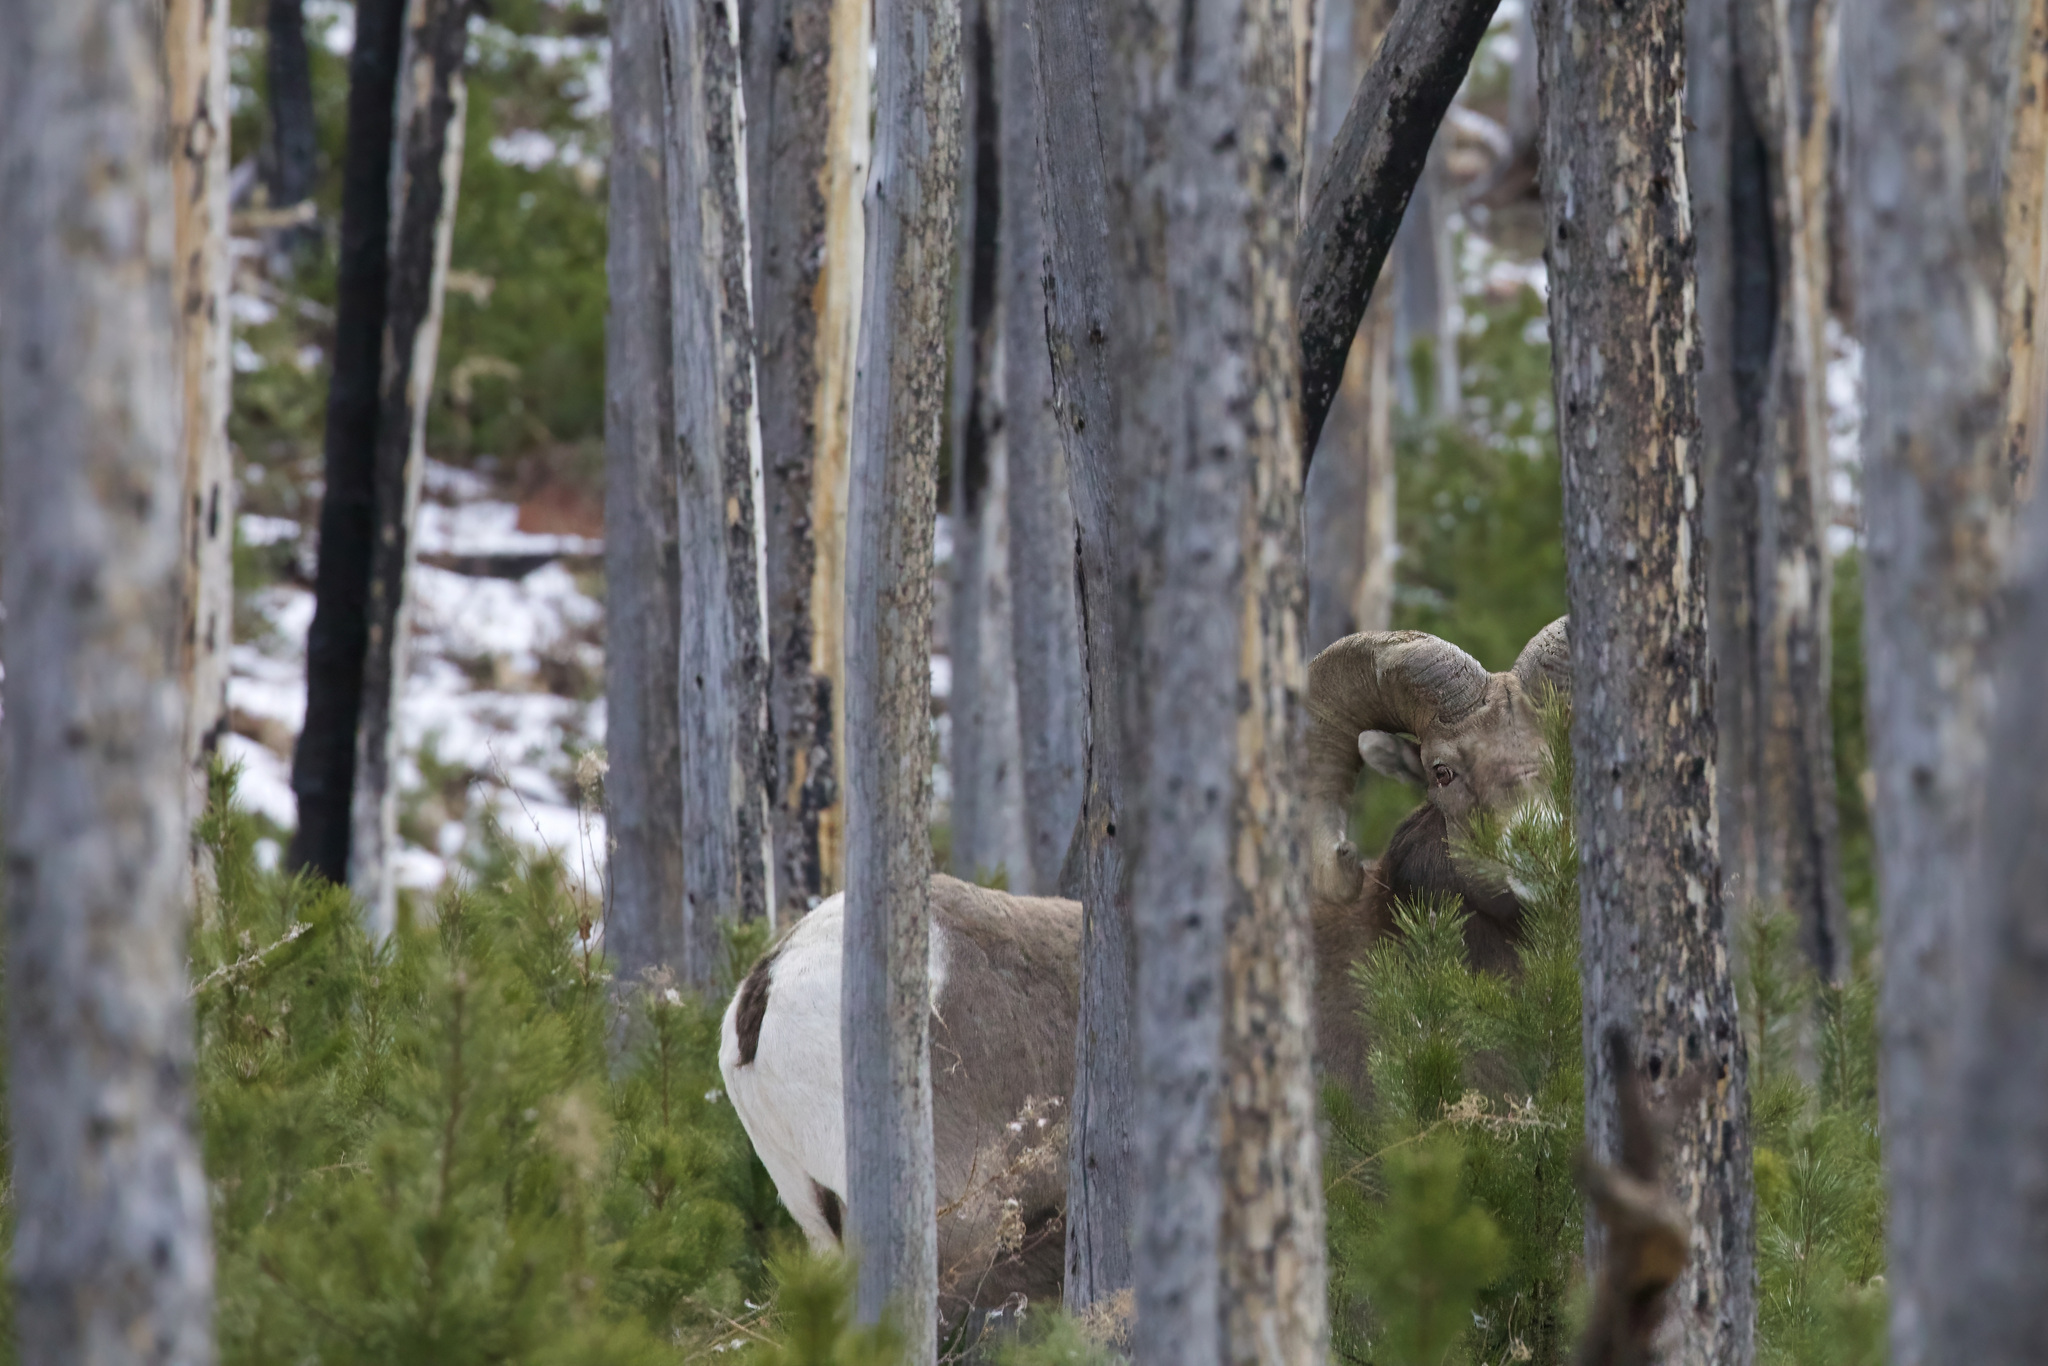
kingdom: Animalia
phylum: Chordata
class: Mammalia
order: Artiodactyla
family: Bovidae
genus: Ovis
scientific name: Ovis canadensis
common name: Bighorn sheep
